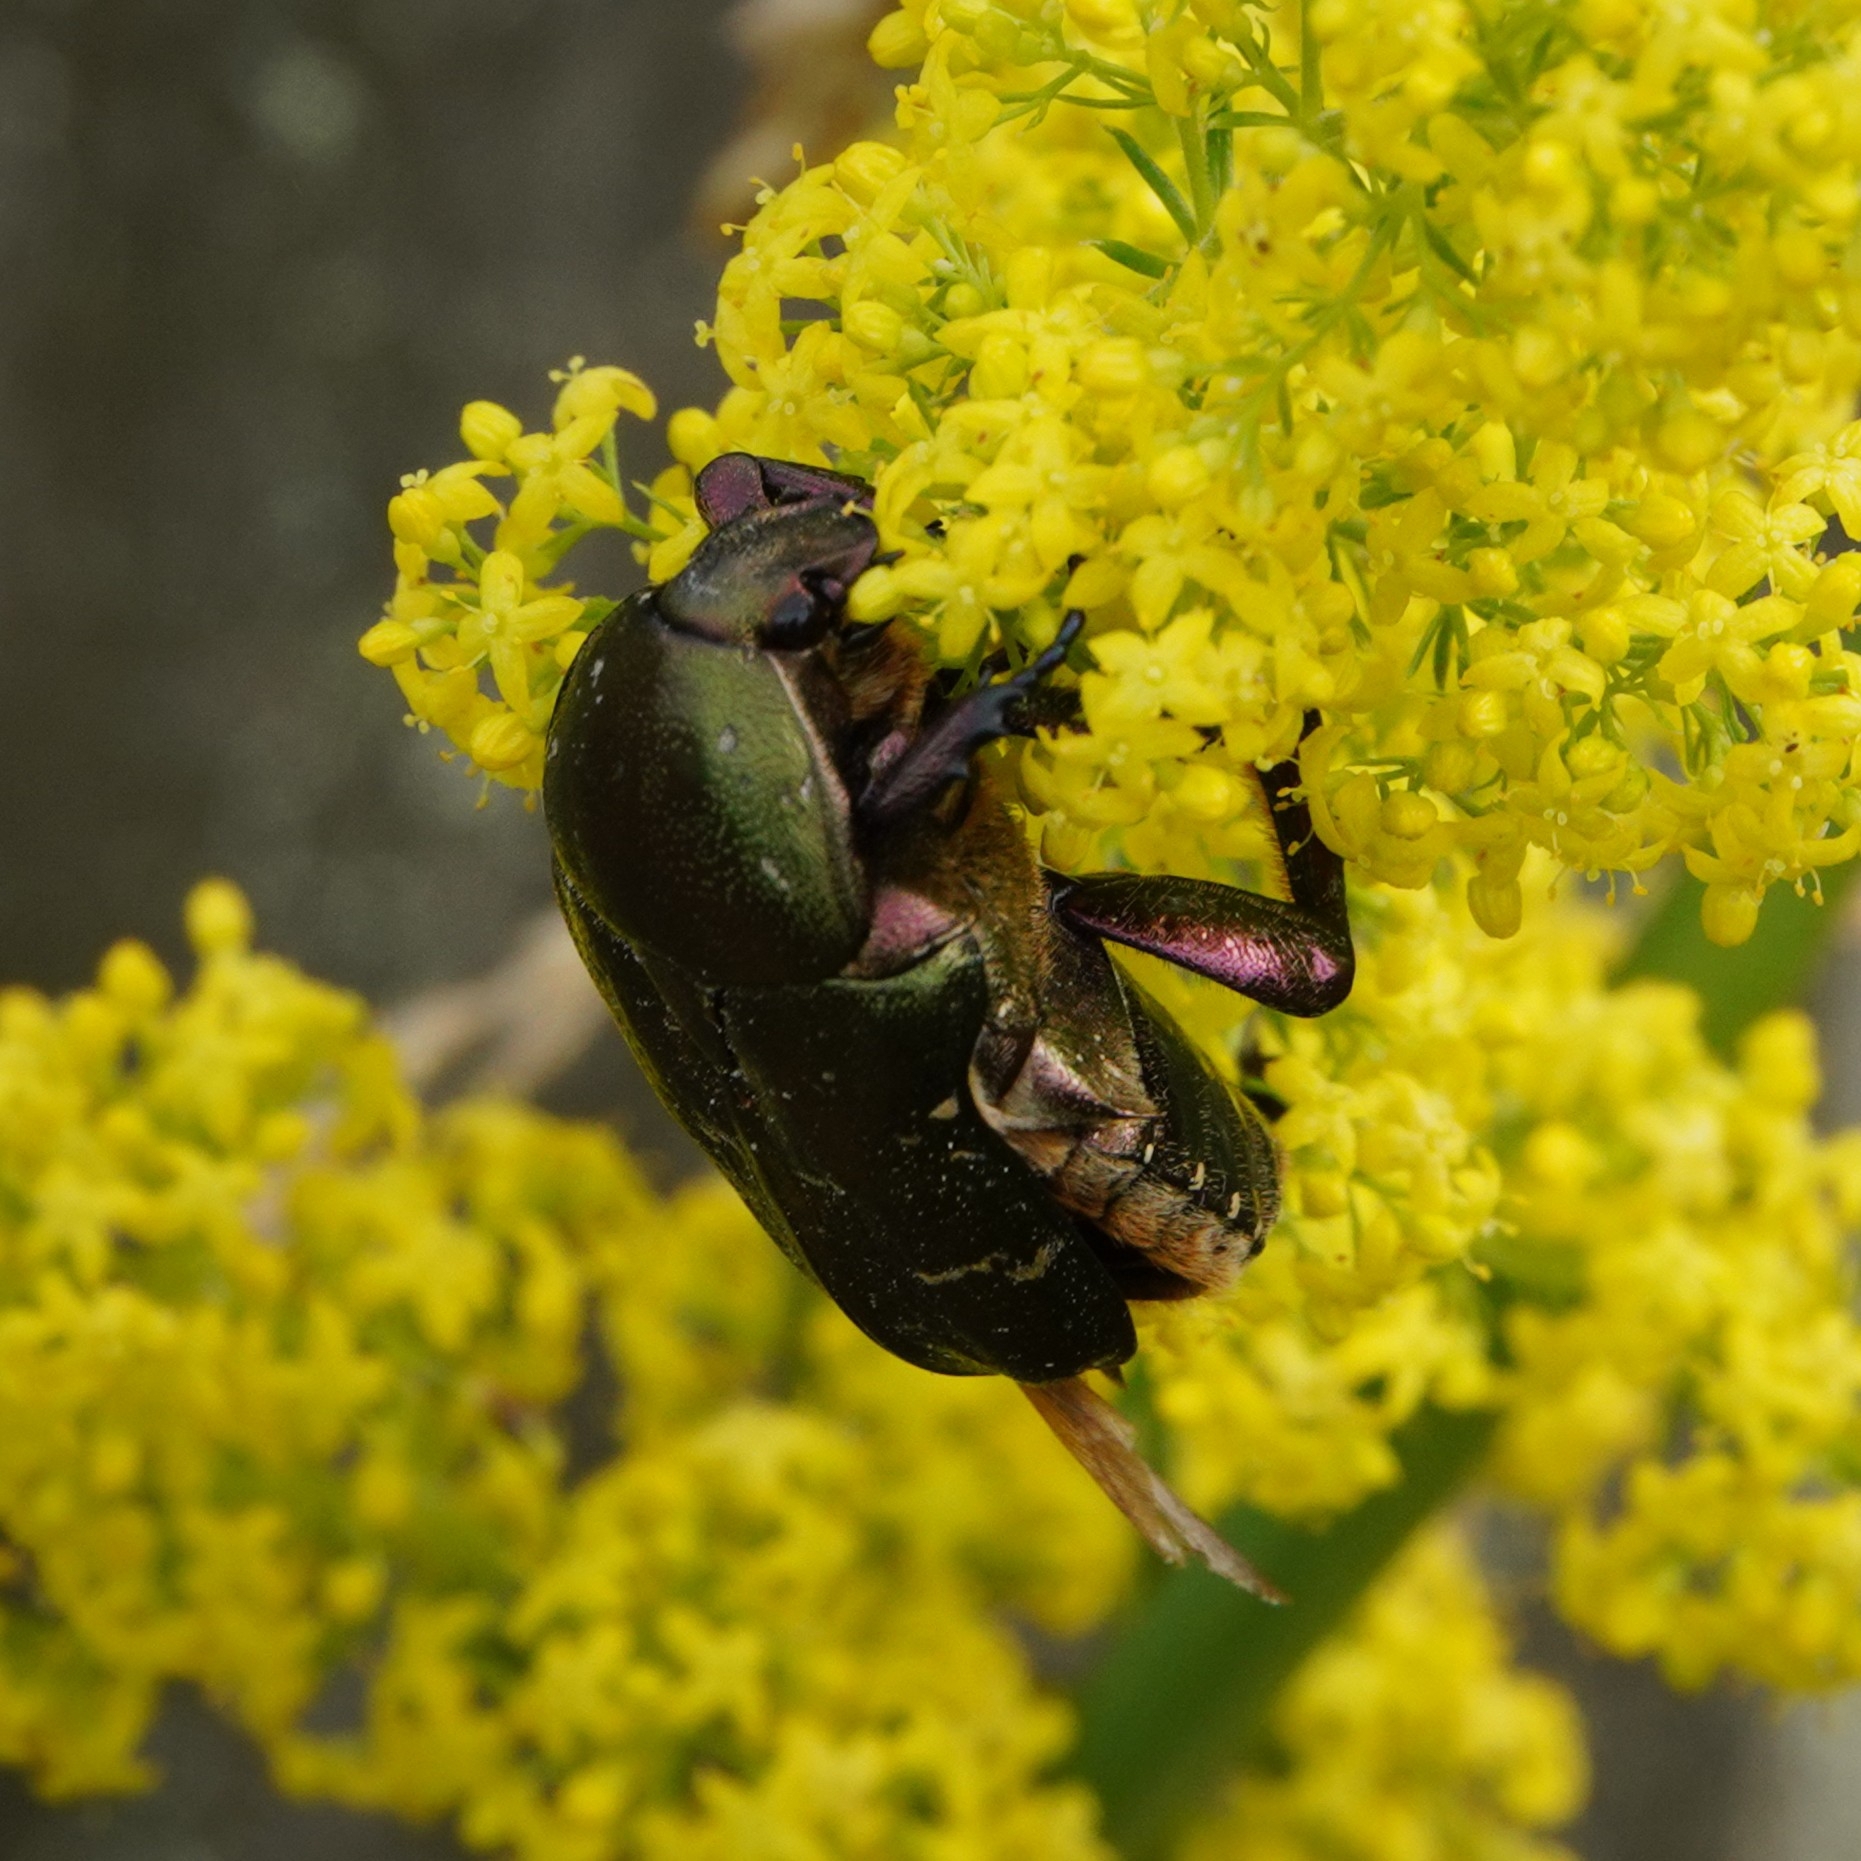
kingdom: Animalia
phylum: Arthropoda
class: Insecta
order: Coleoptera
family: Scarabaeidae
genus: Protaetia
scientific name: Protaetia cuprea
